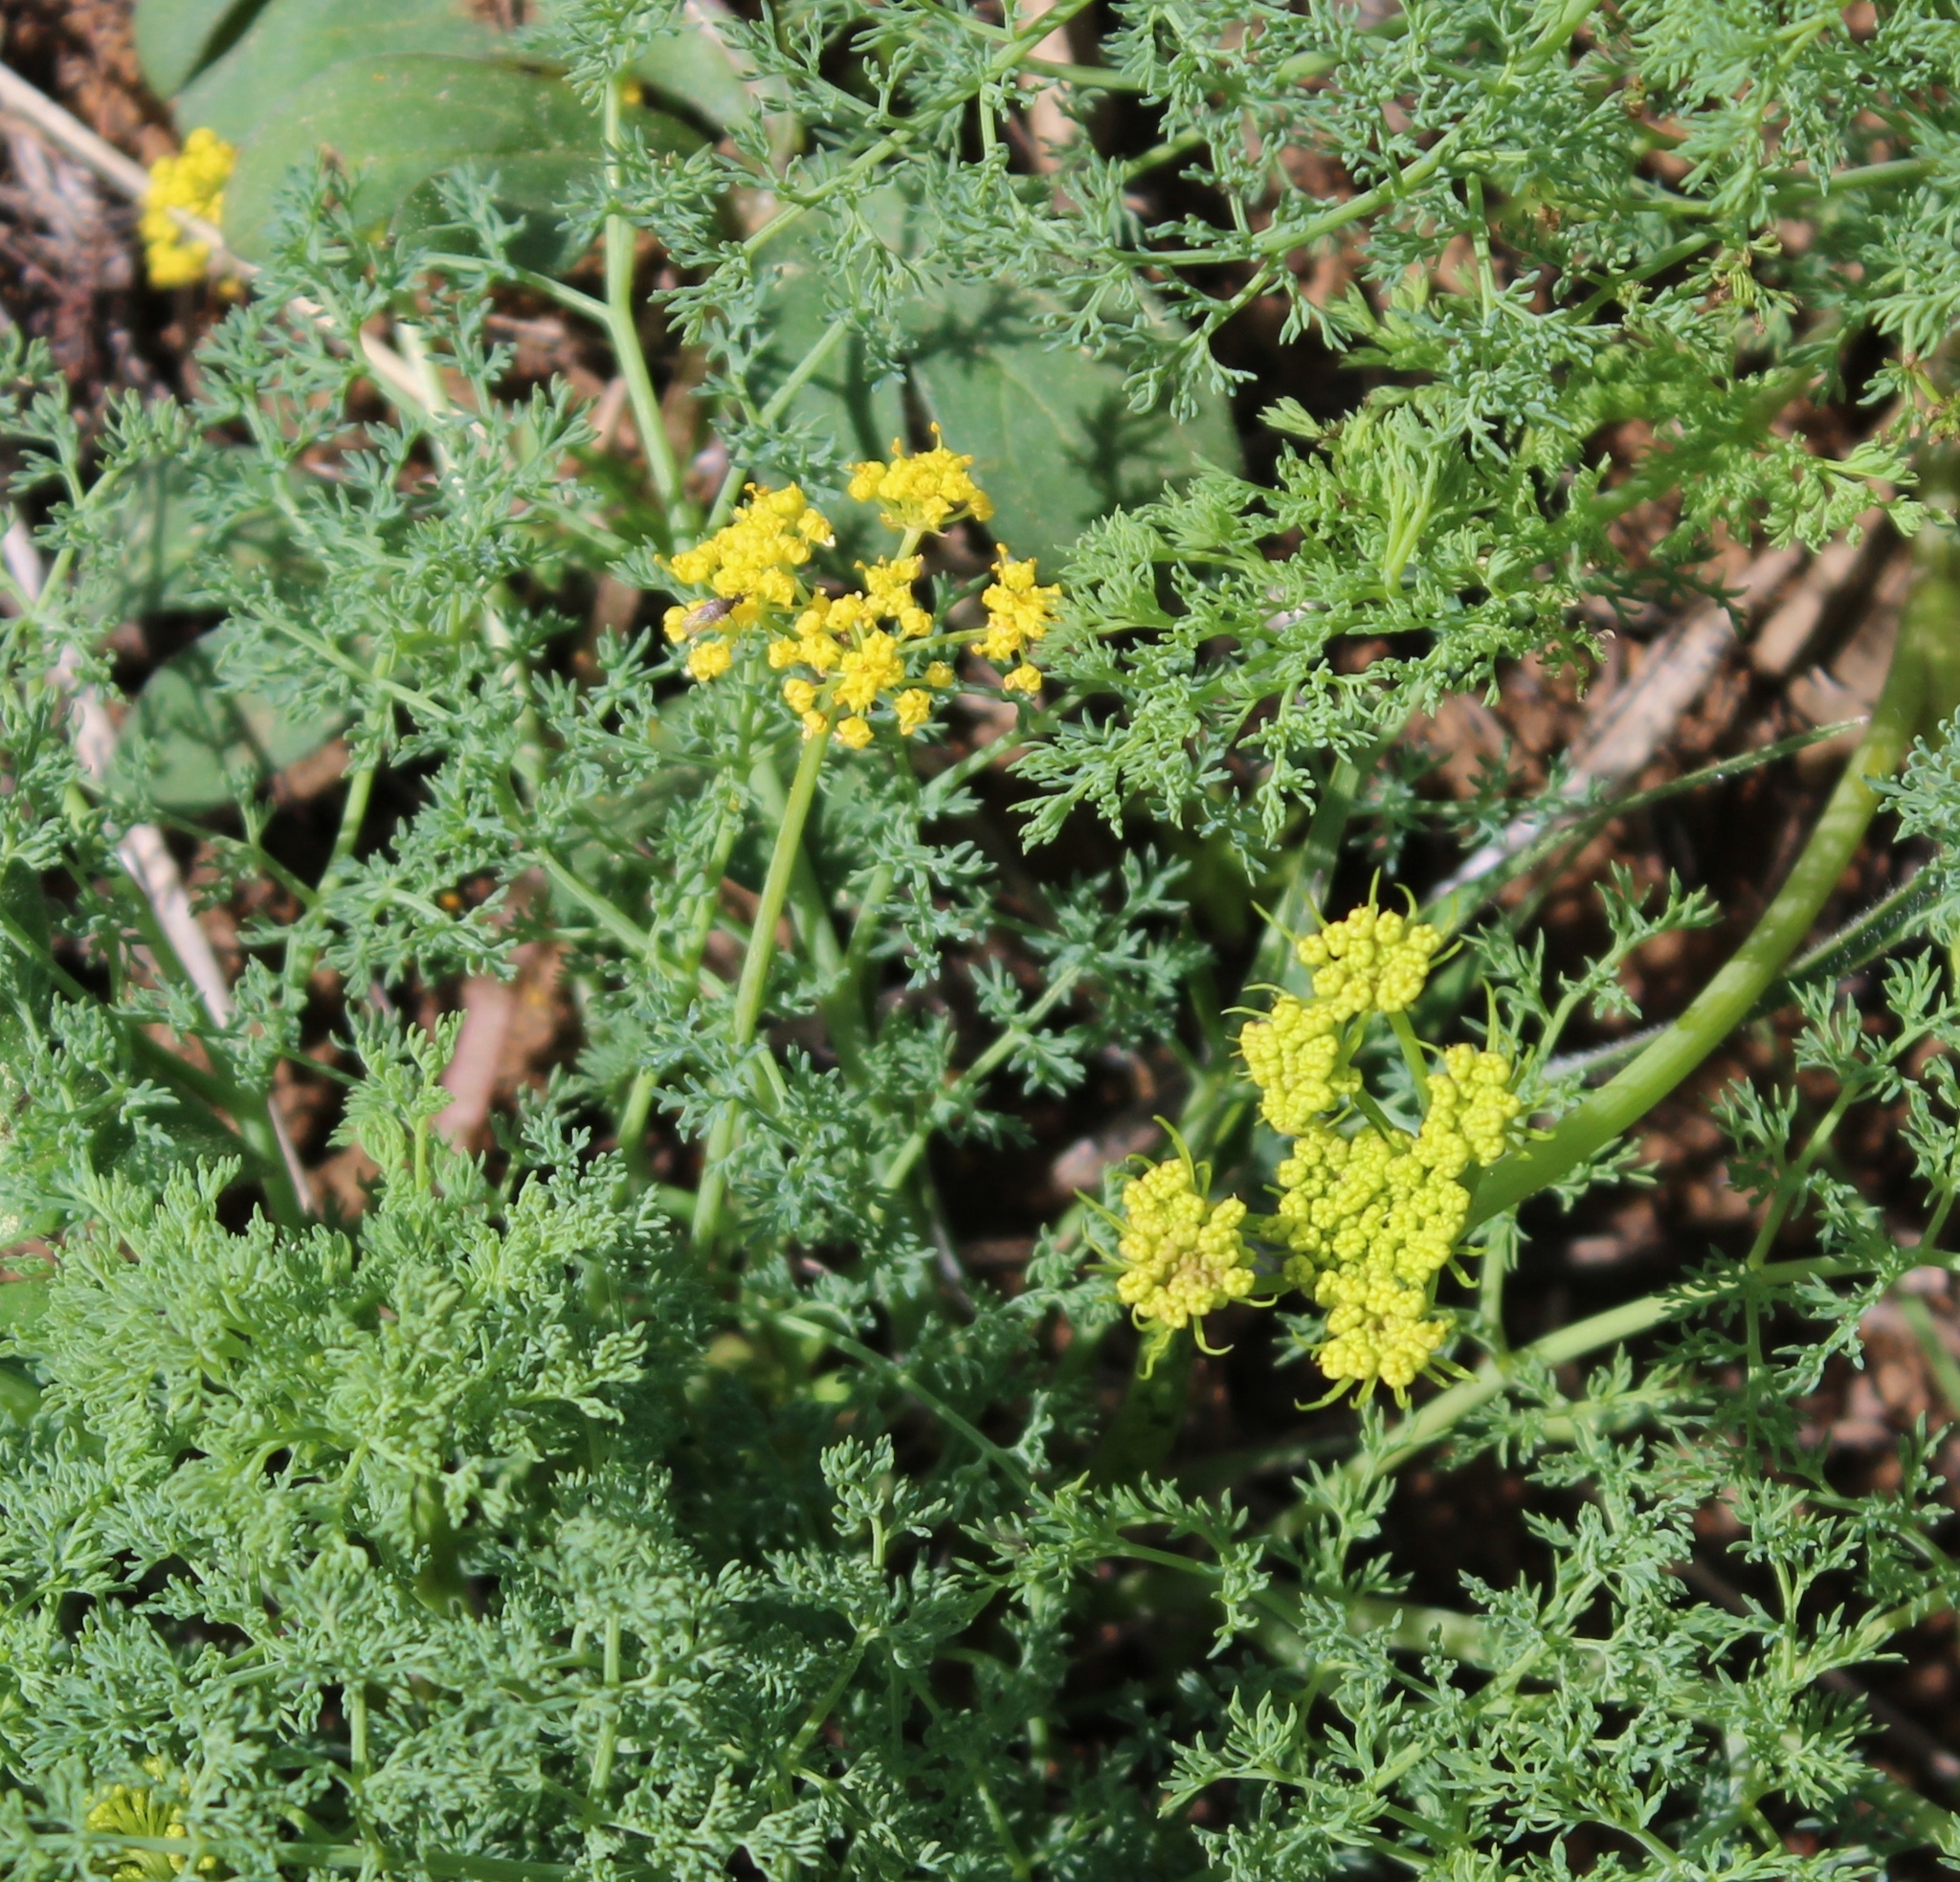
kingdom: Plantae
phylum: Tracheophyta
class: Magnoliopsida
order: Apiales
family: Apiaceae
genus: Lomatium
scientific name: Lomatium papilioniferum
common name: Butterfly lomatium
